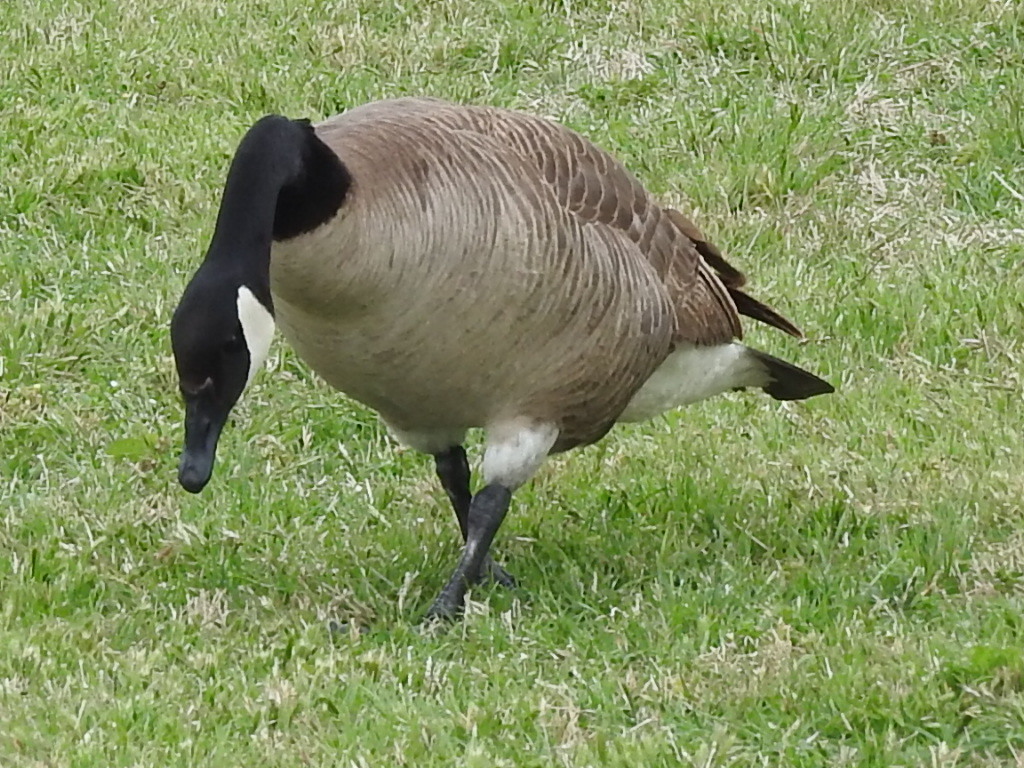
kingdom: Animalia
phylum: Chordata
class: Aves
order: Anseriformes
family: Anatidae
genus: Branta
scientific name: Branta canadensis
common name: Canada goose
